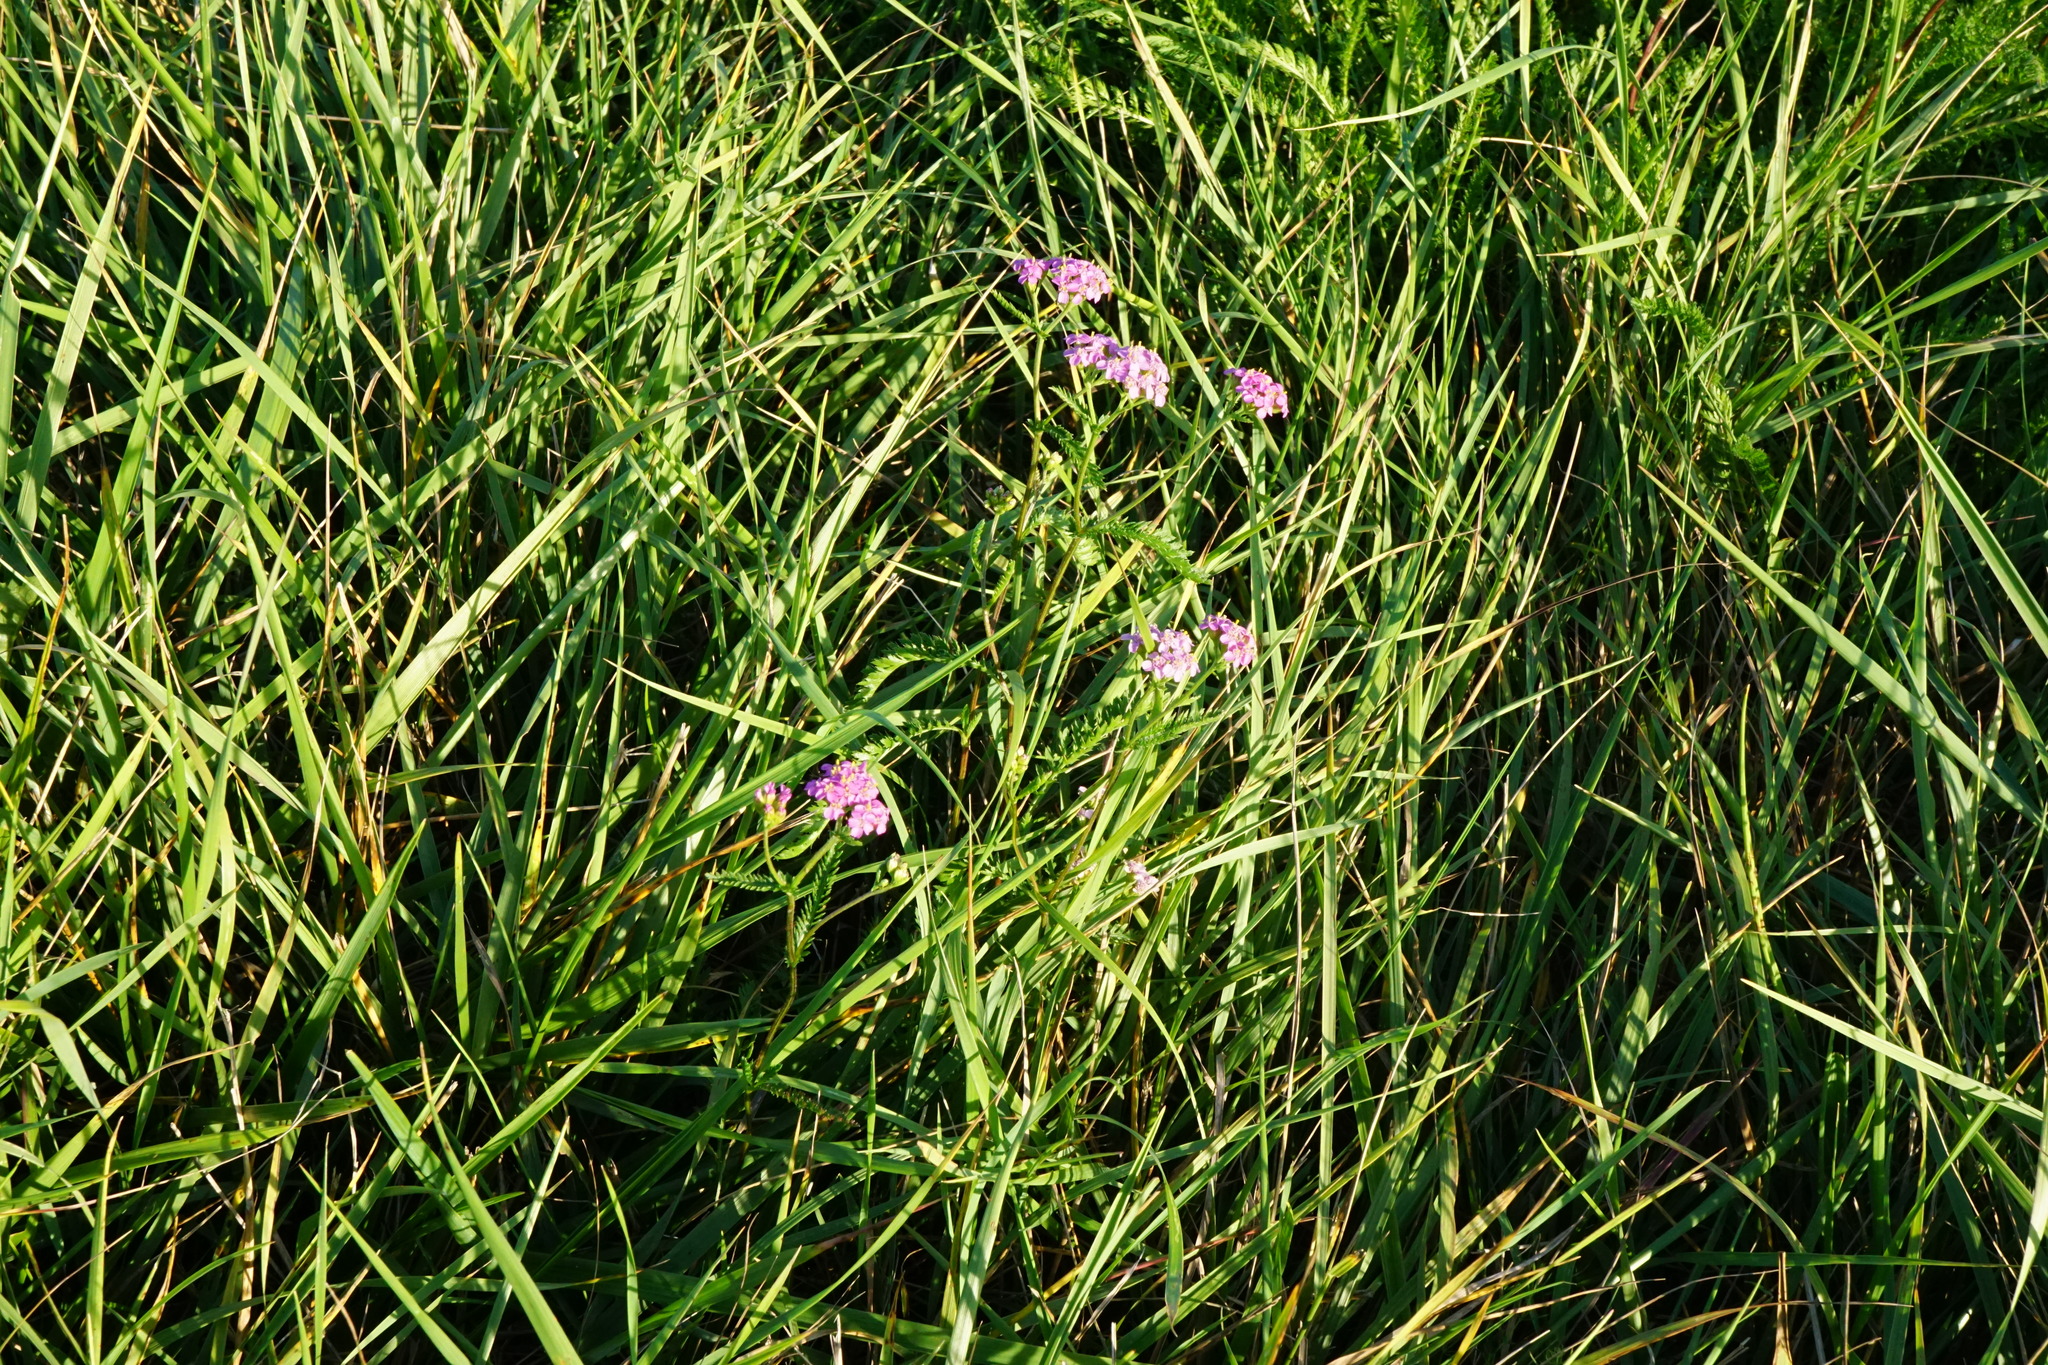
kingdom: Plantae
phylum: Tracheophyta
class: Magnoliopsida
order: Asterales
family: Asteraceae
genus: Achillea
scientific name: Achillea aspleniifolia
